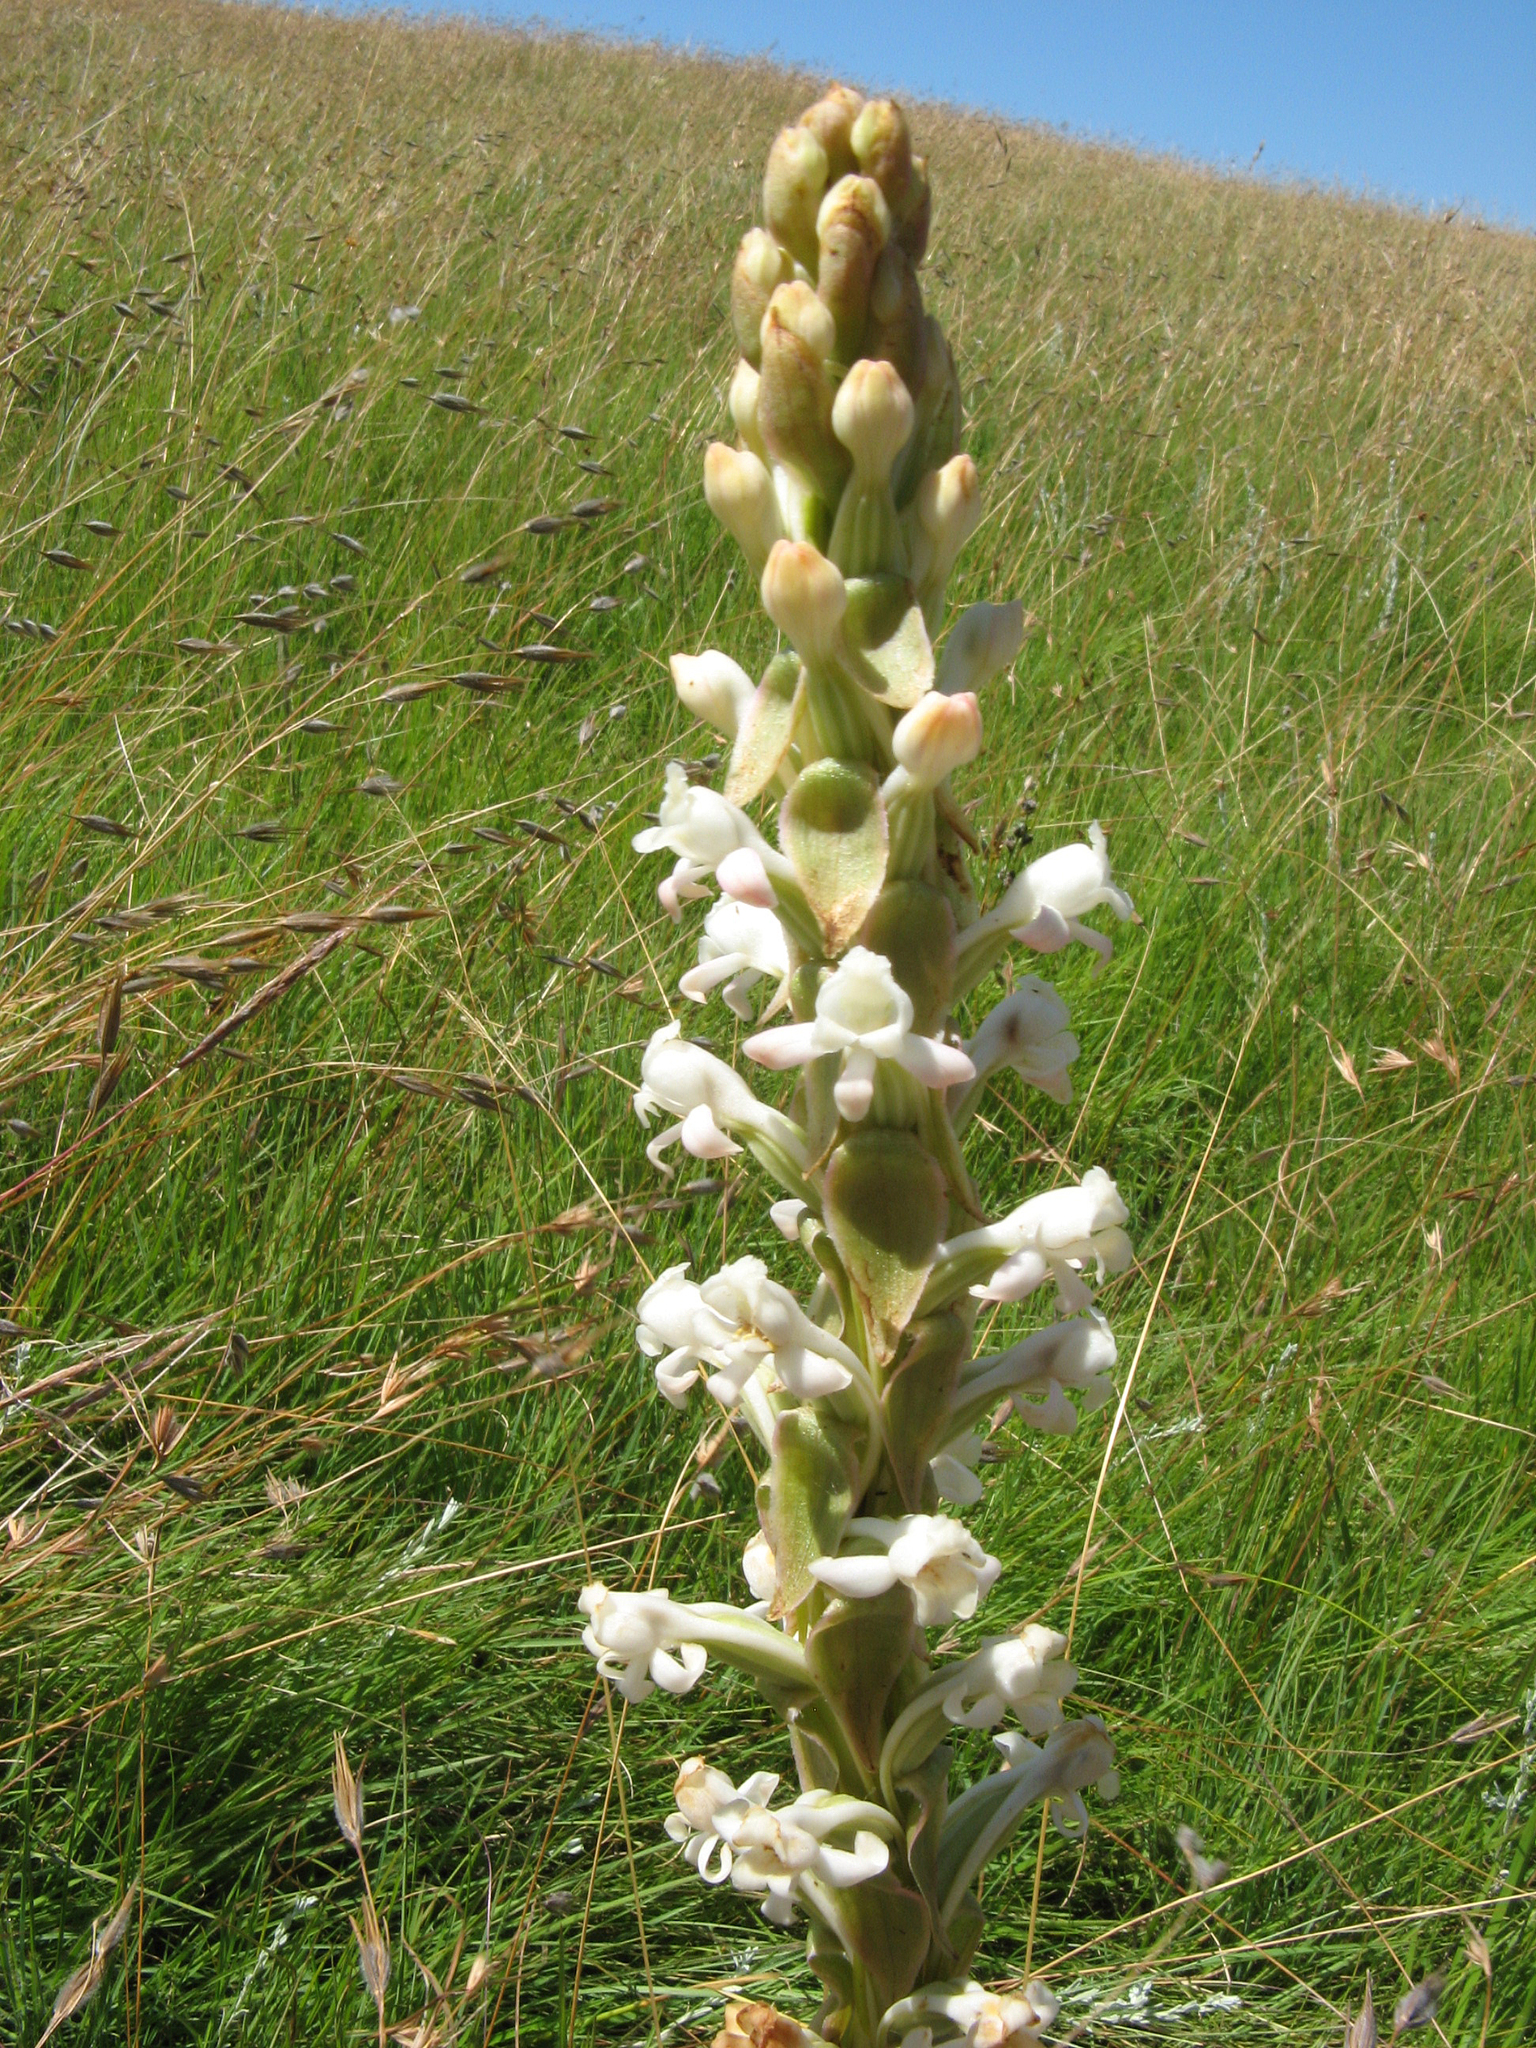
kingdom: Plantae
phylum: Tracheophyta
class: Liliopsida
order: Asparagales
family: Orchidaceae
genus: Satyrium
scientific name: Satyrium longicauda
